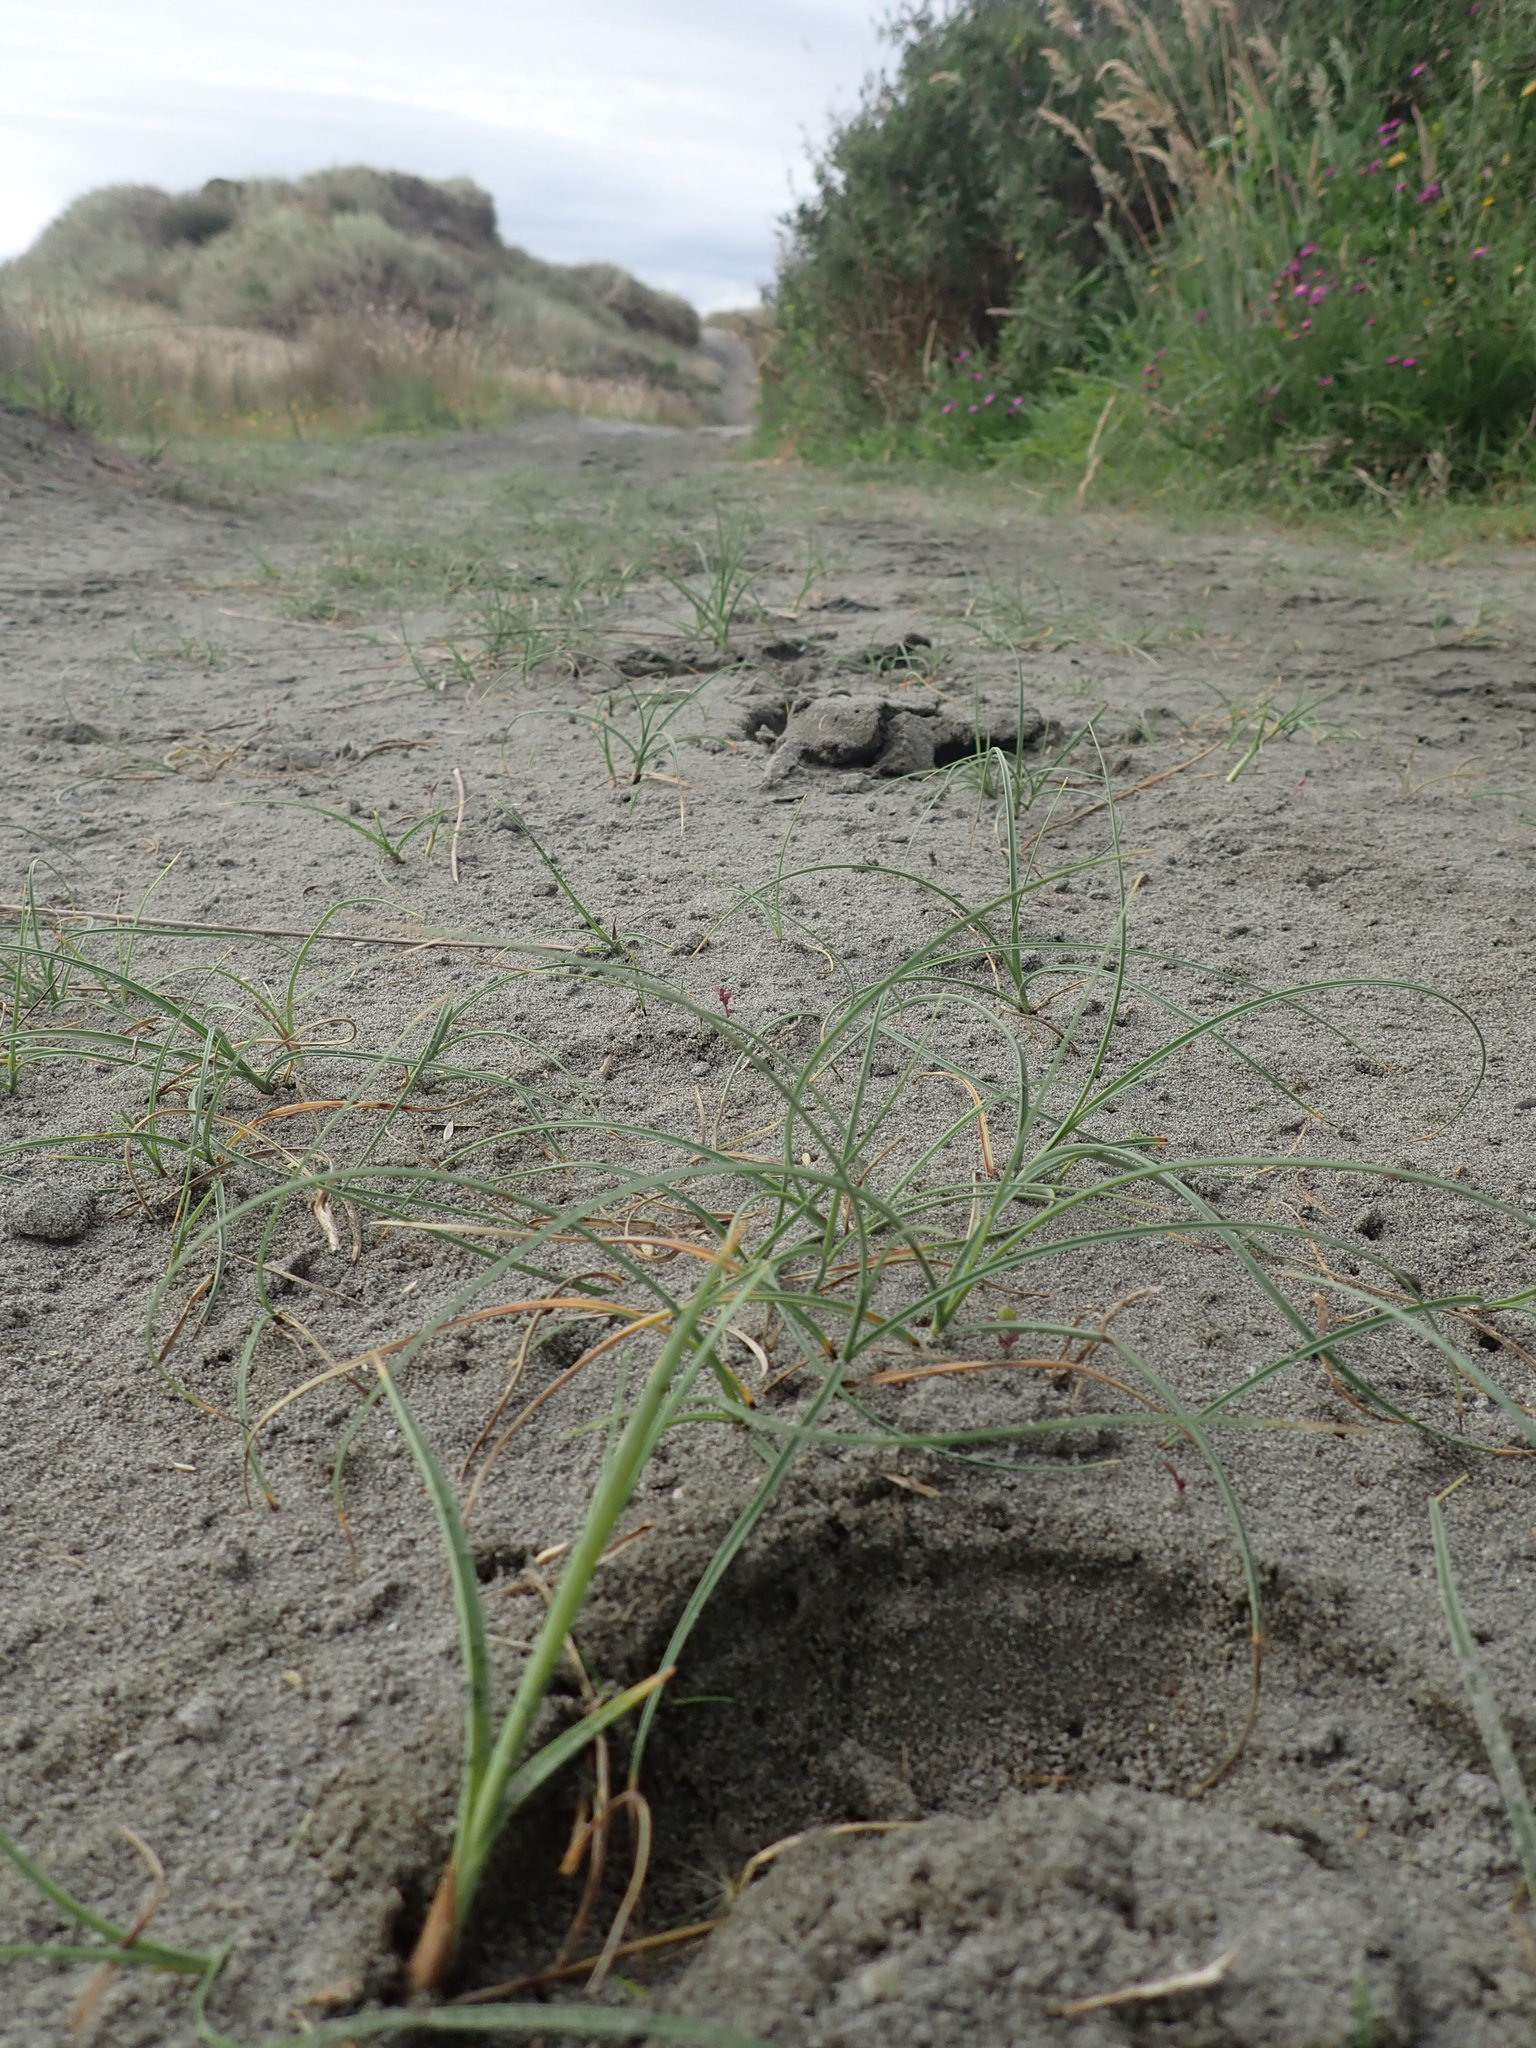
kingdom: Plantae
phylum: Tracheophyta
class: Liliopsida
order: Poales
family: Cyperaceae
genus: Carex
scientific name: Carex pumila
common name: Dwarf sedge
